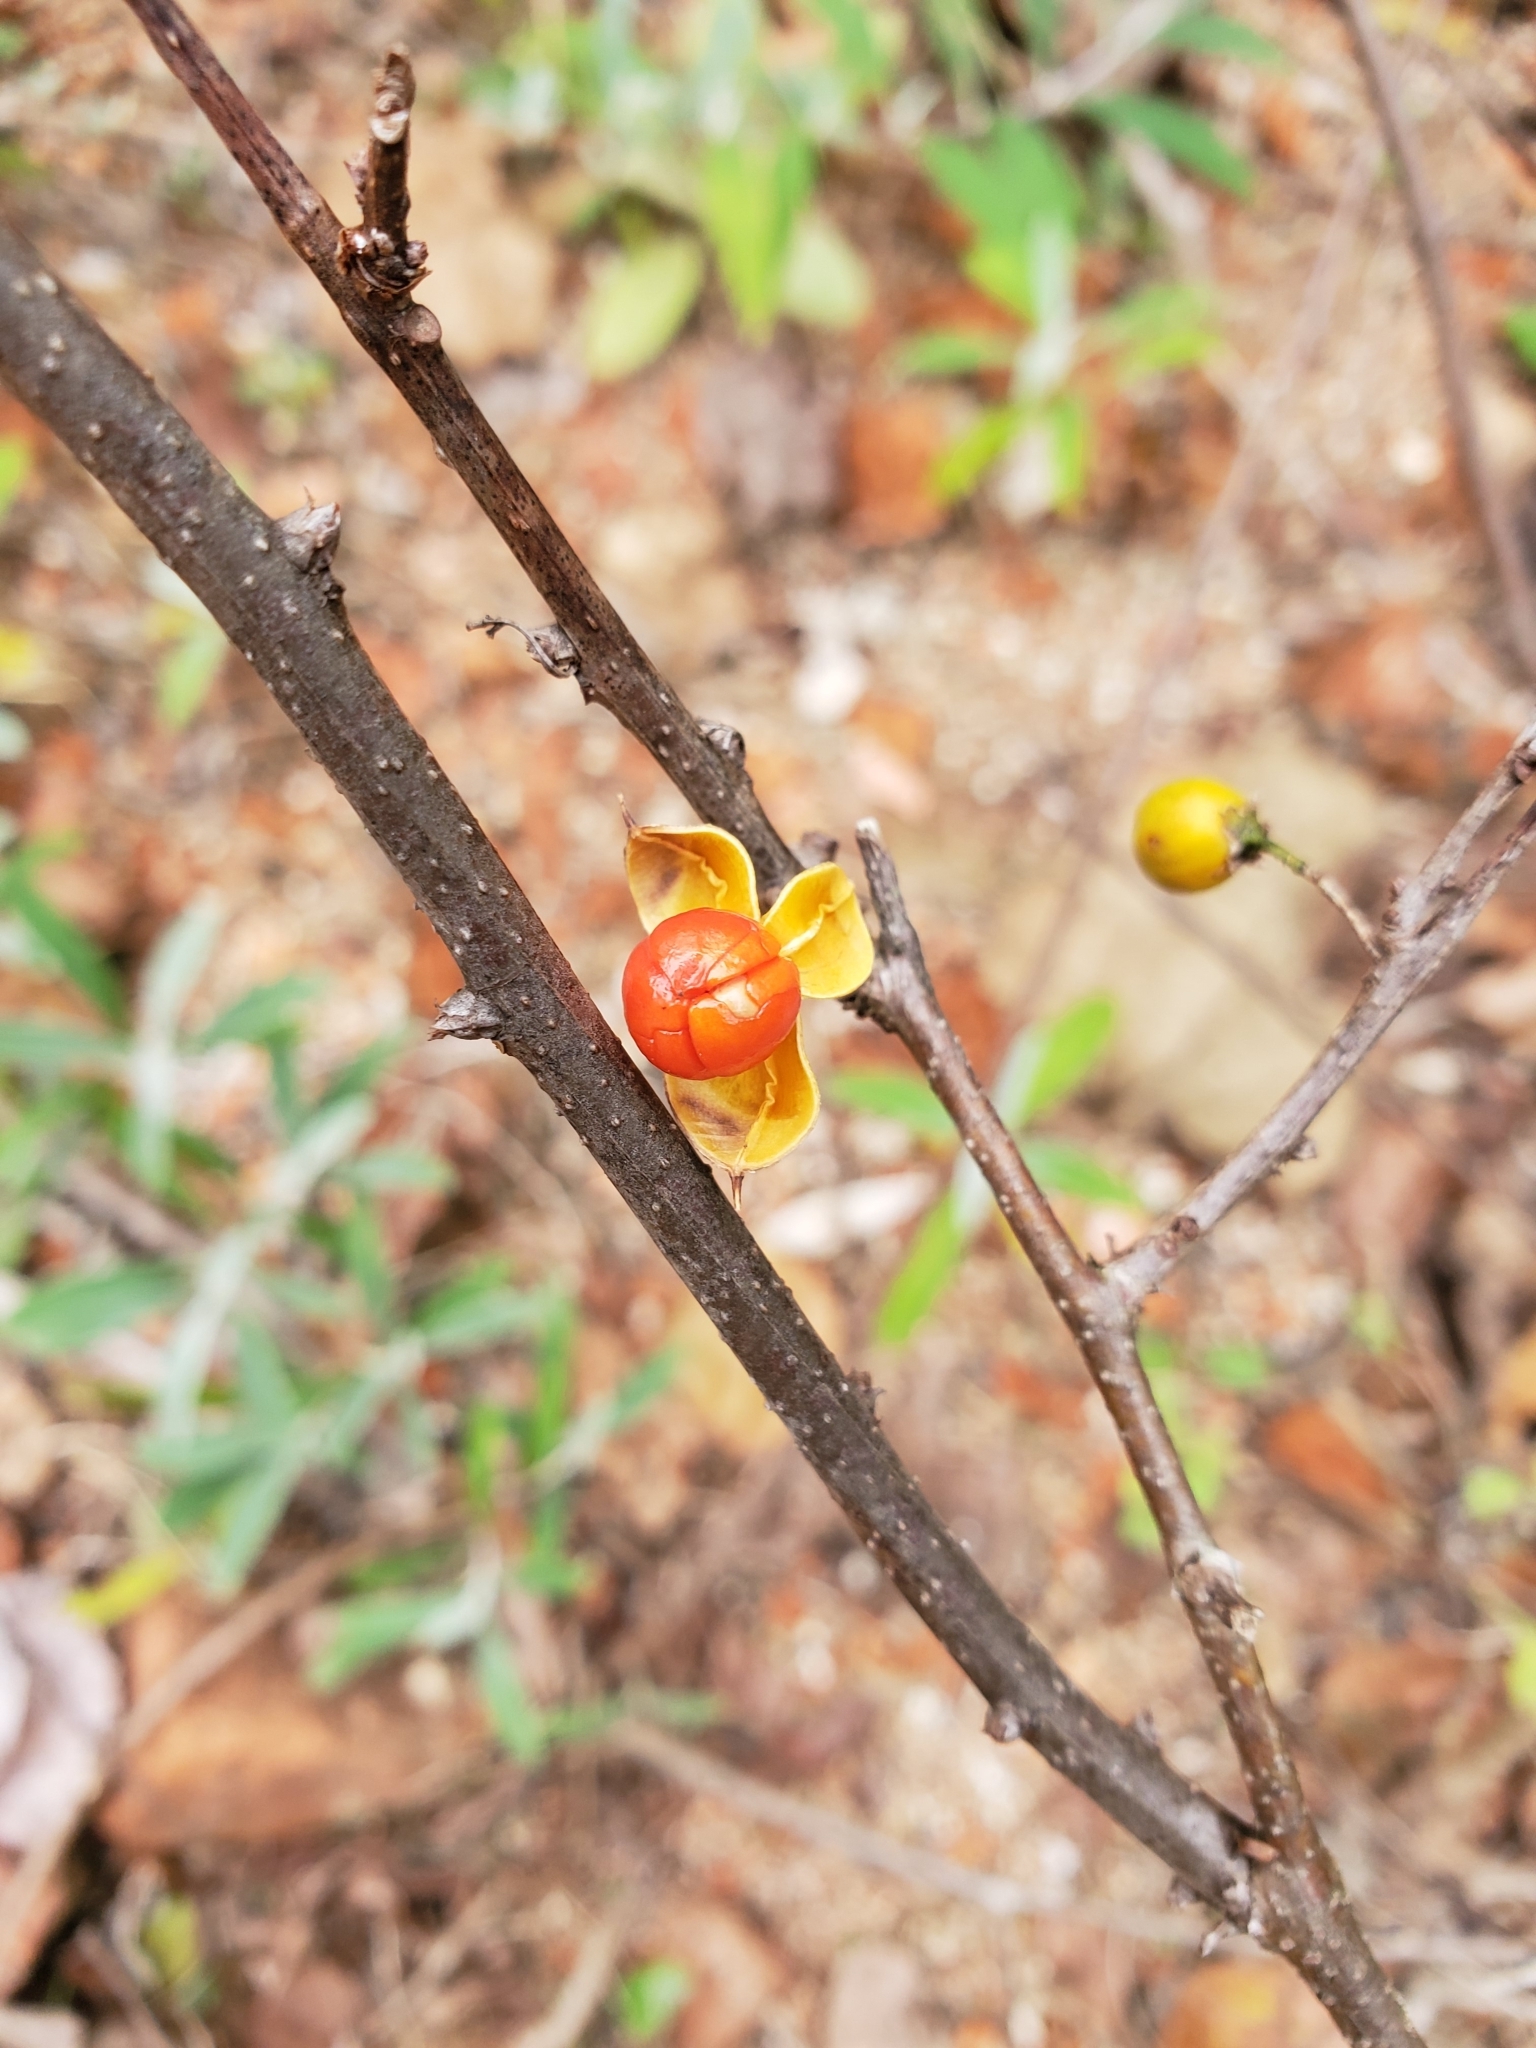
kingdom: Plantae
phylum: Tracheophyta
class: Magnoliopsida
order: Celastrales
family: Celastraceae
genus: Celastrus
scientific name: Celastrus orbiculatus
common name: Oriental bittersweet
